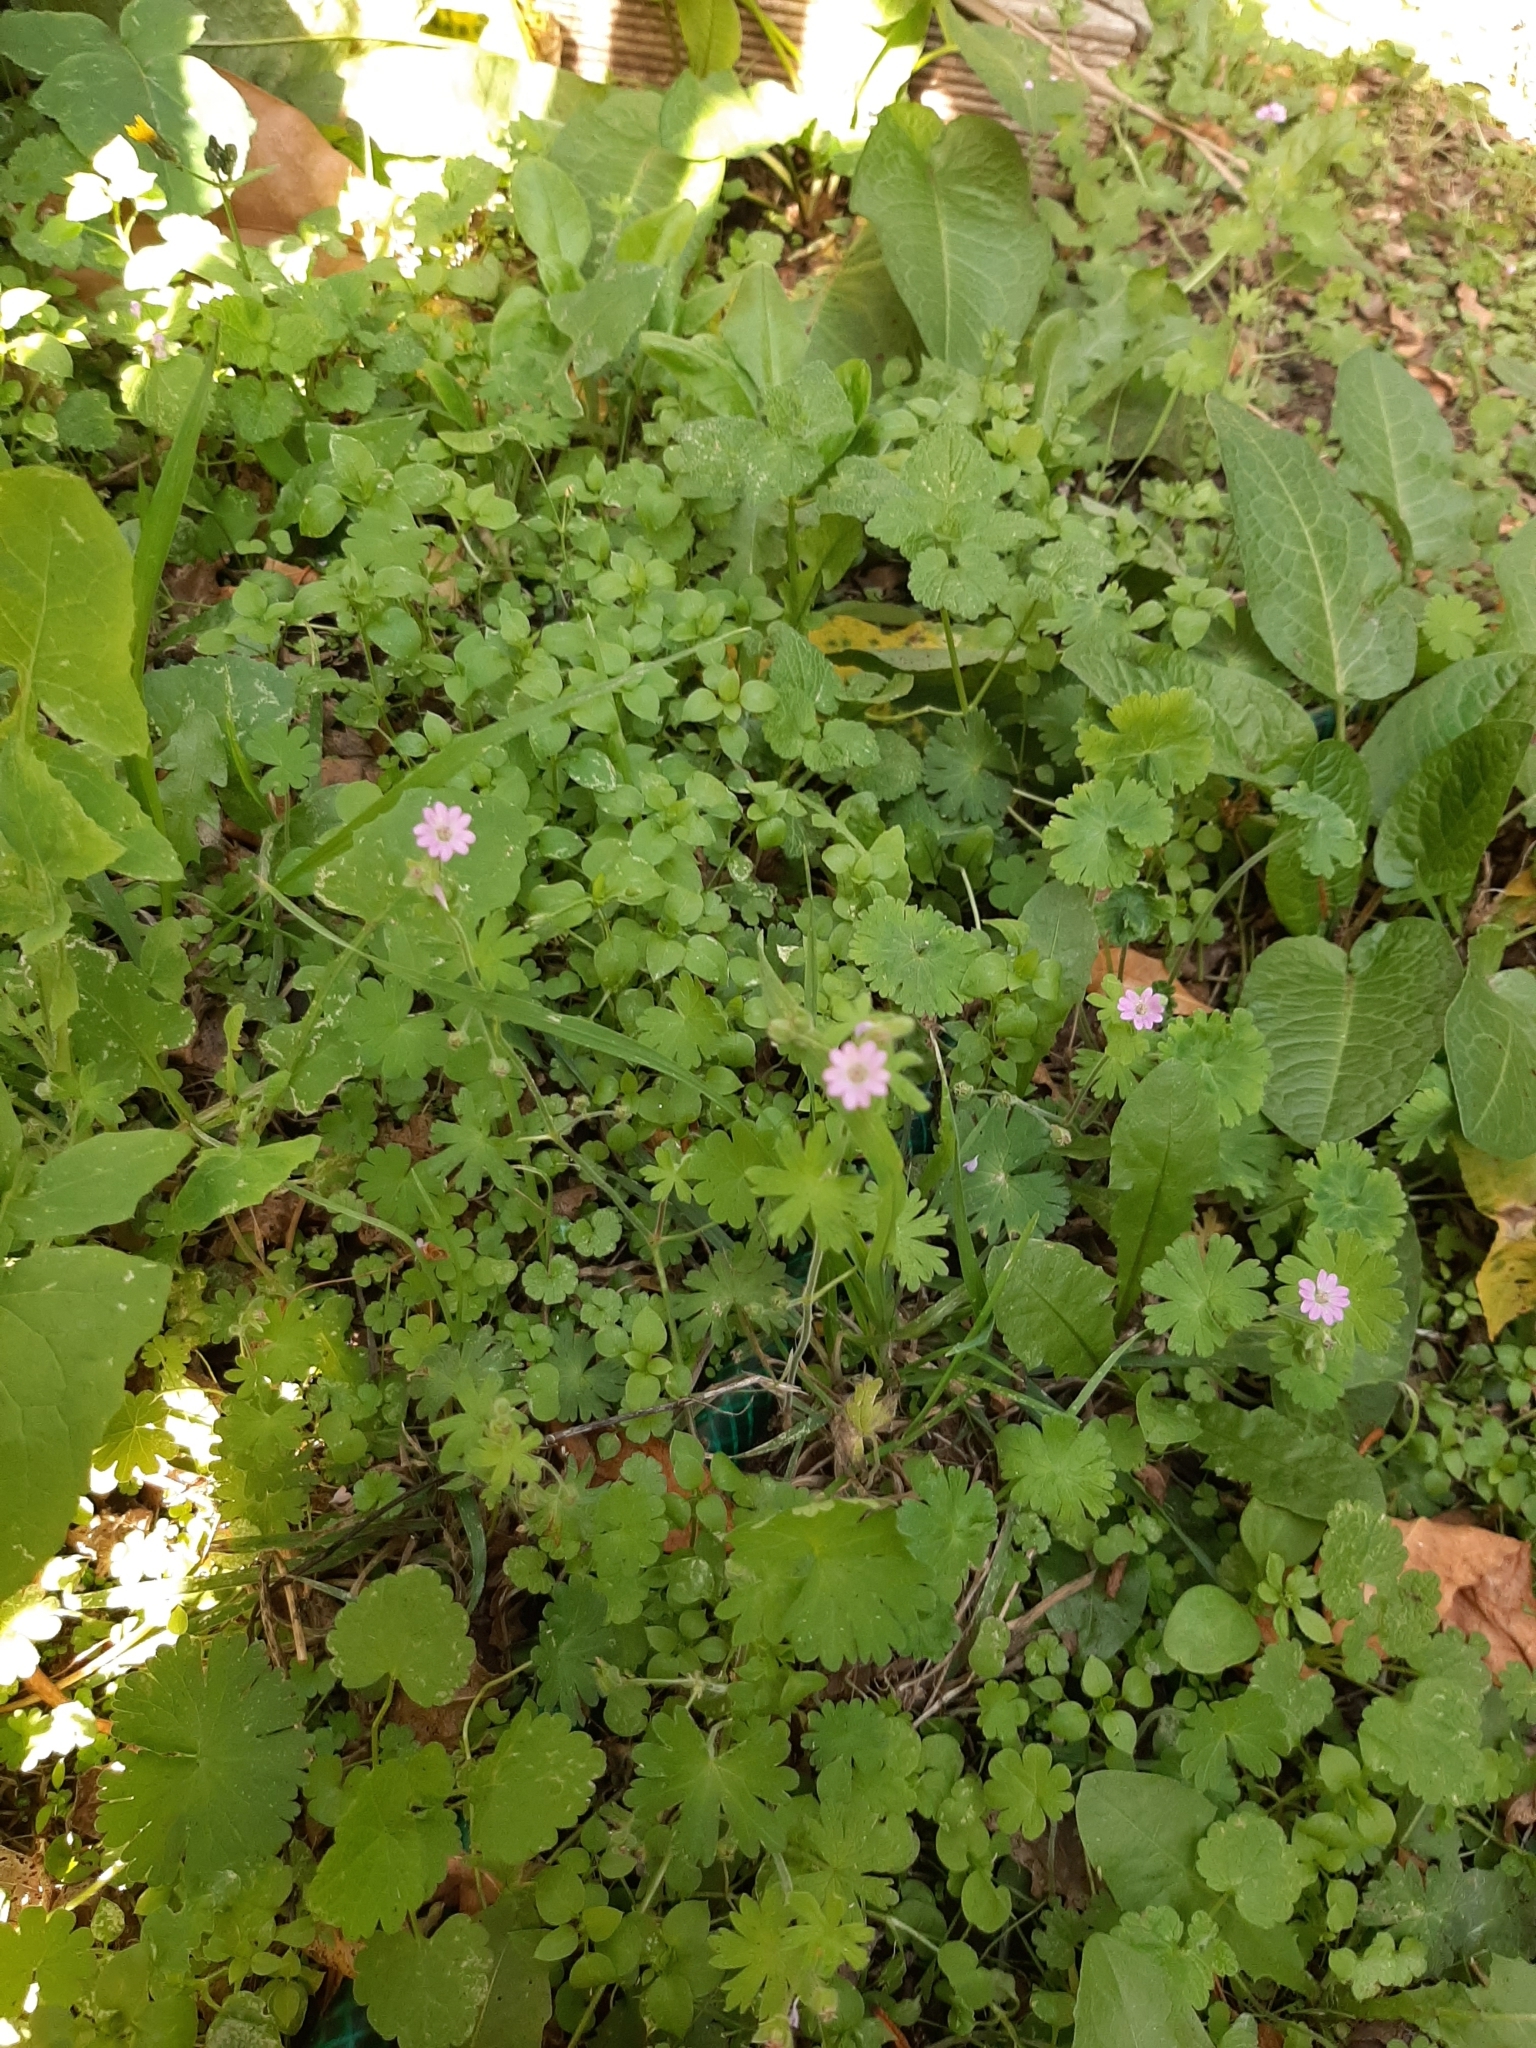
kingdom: Plantae
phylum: Tracheophyta
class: Magnoliopsida
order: Geraniales
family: Geraniaceae
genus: Geranium
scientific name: Geranium molle
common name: Dove's-foot crane's-bill
